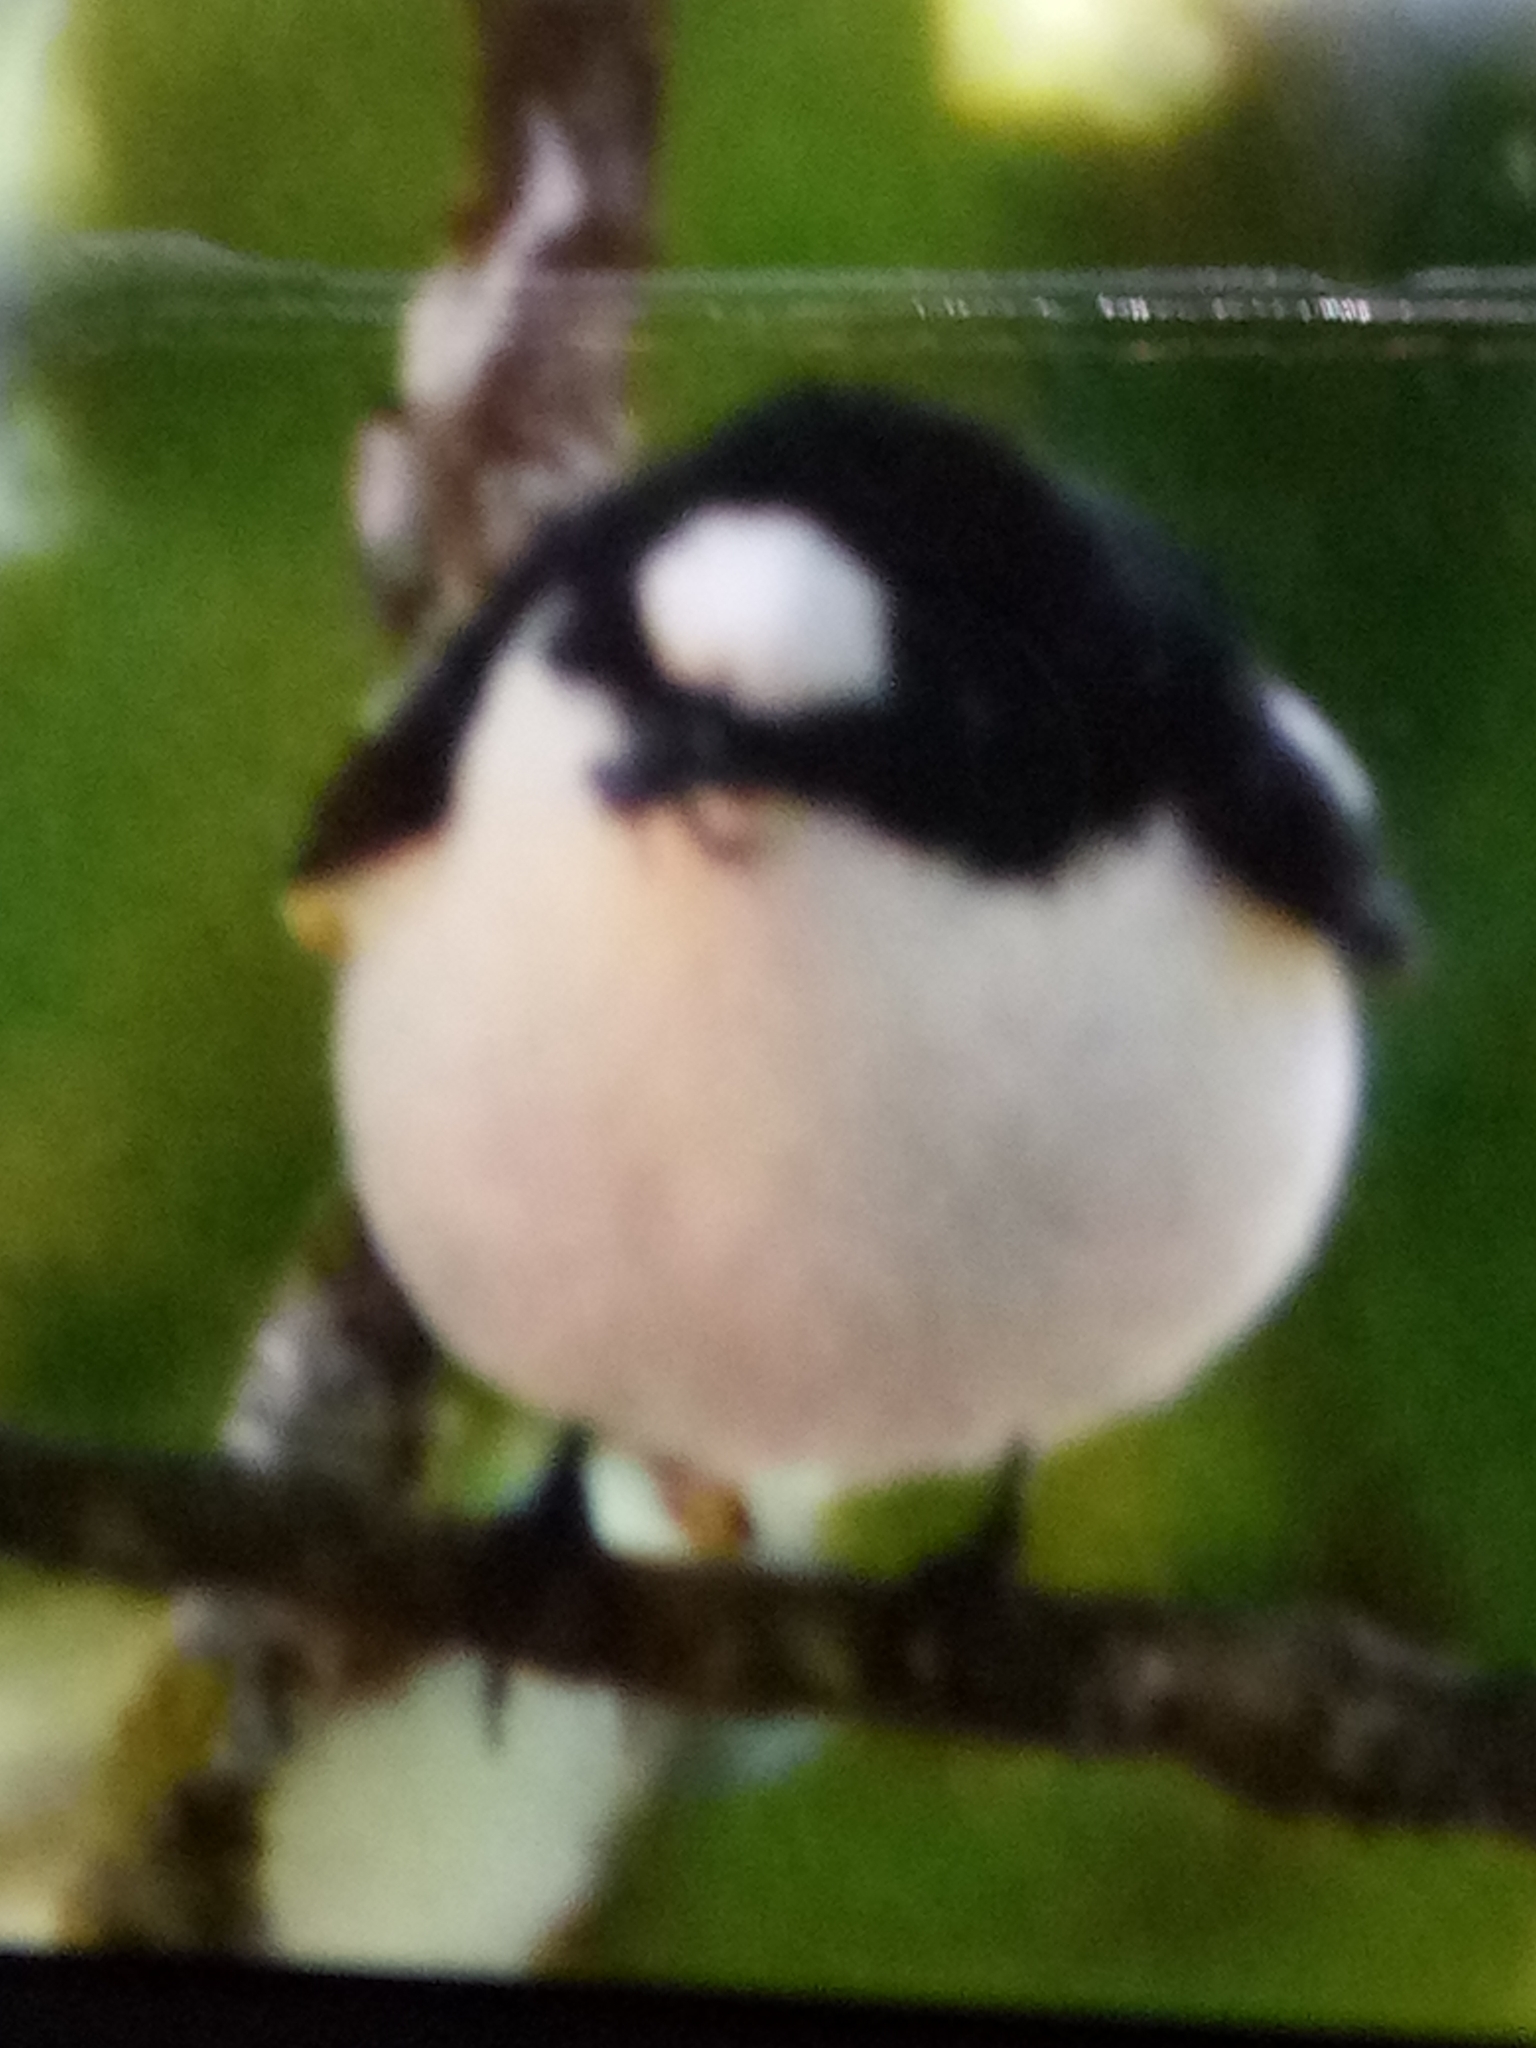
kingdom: Animalia
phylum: Chordata
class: Aves
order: Passeriformes
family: Muscicapidae
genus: Ficedula
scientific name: Ficedula speculigera
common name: Atlas pied flycatcher
